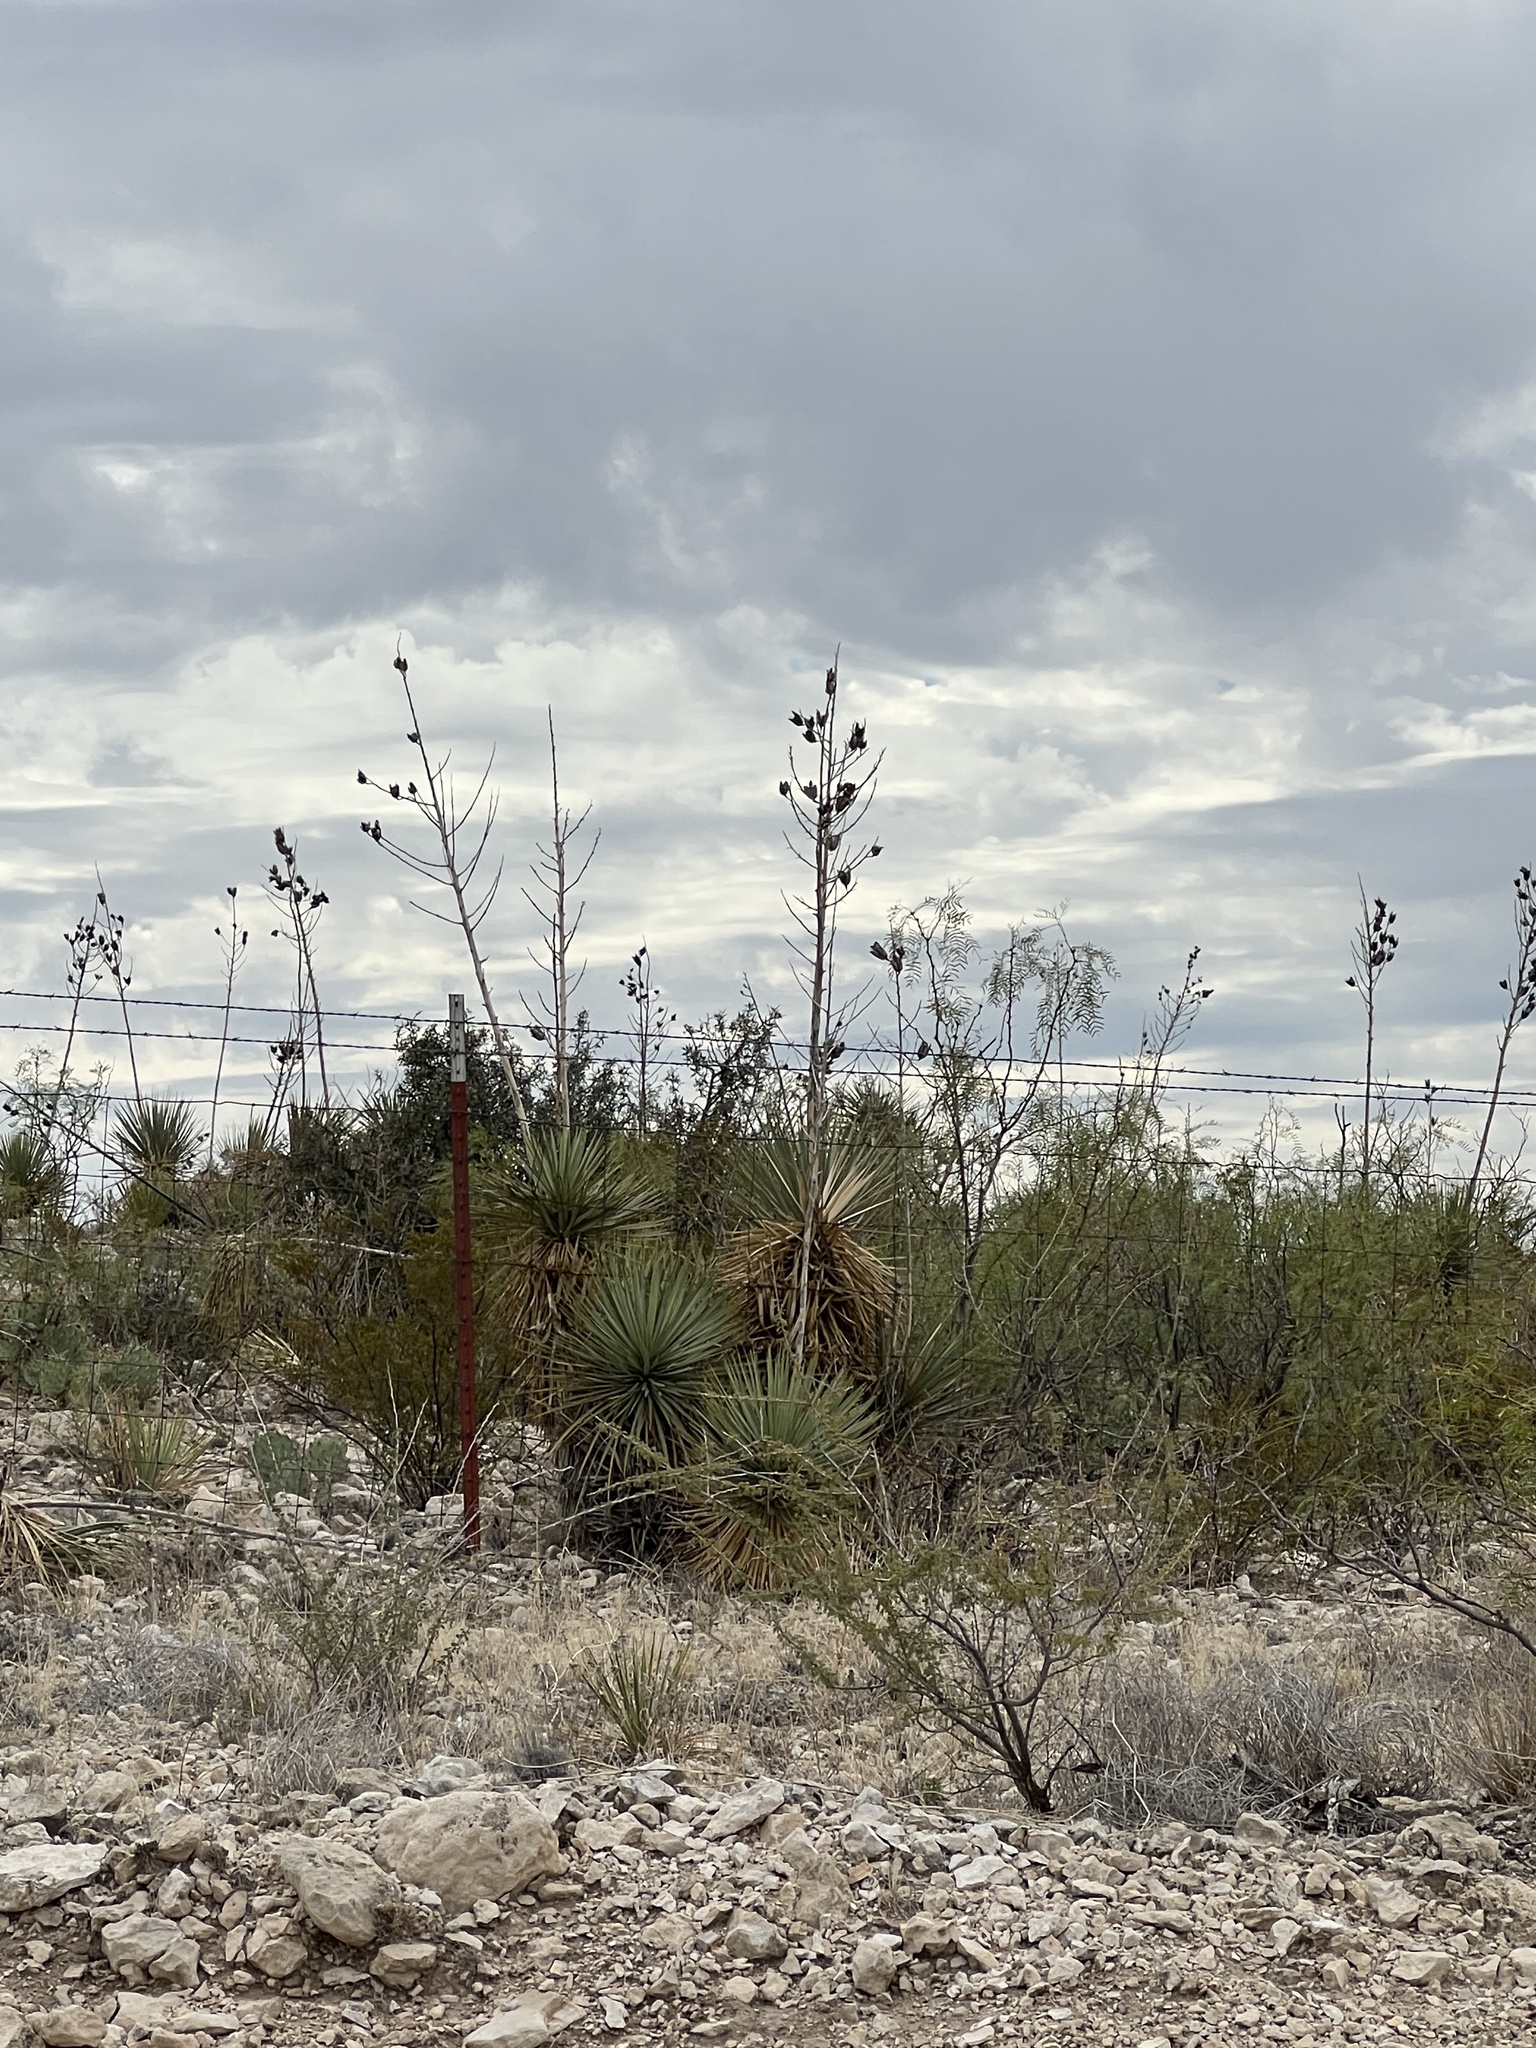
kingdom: Plantae
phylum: Tracheophyta
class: Liliopsida
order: Asparagales
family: Asparagaceae
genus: Yucca
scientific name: Yucca thompsoniana
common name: Trans-pecos yucca
